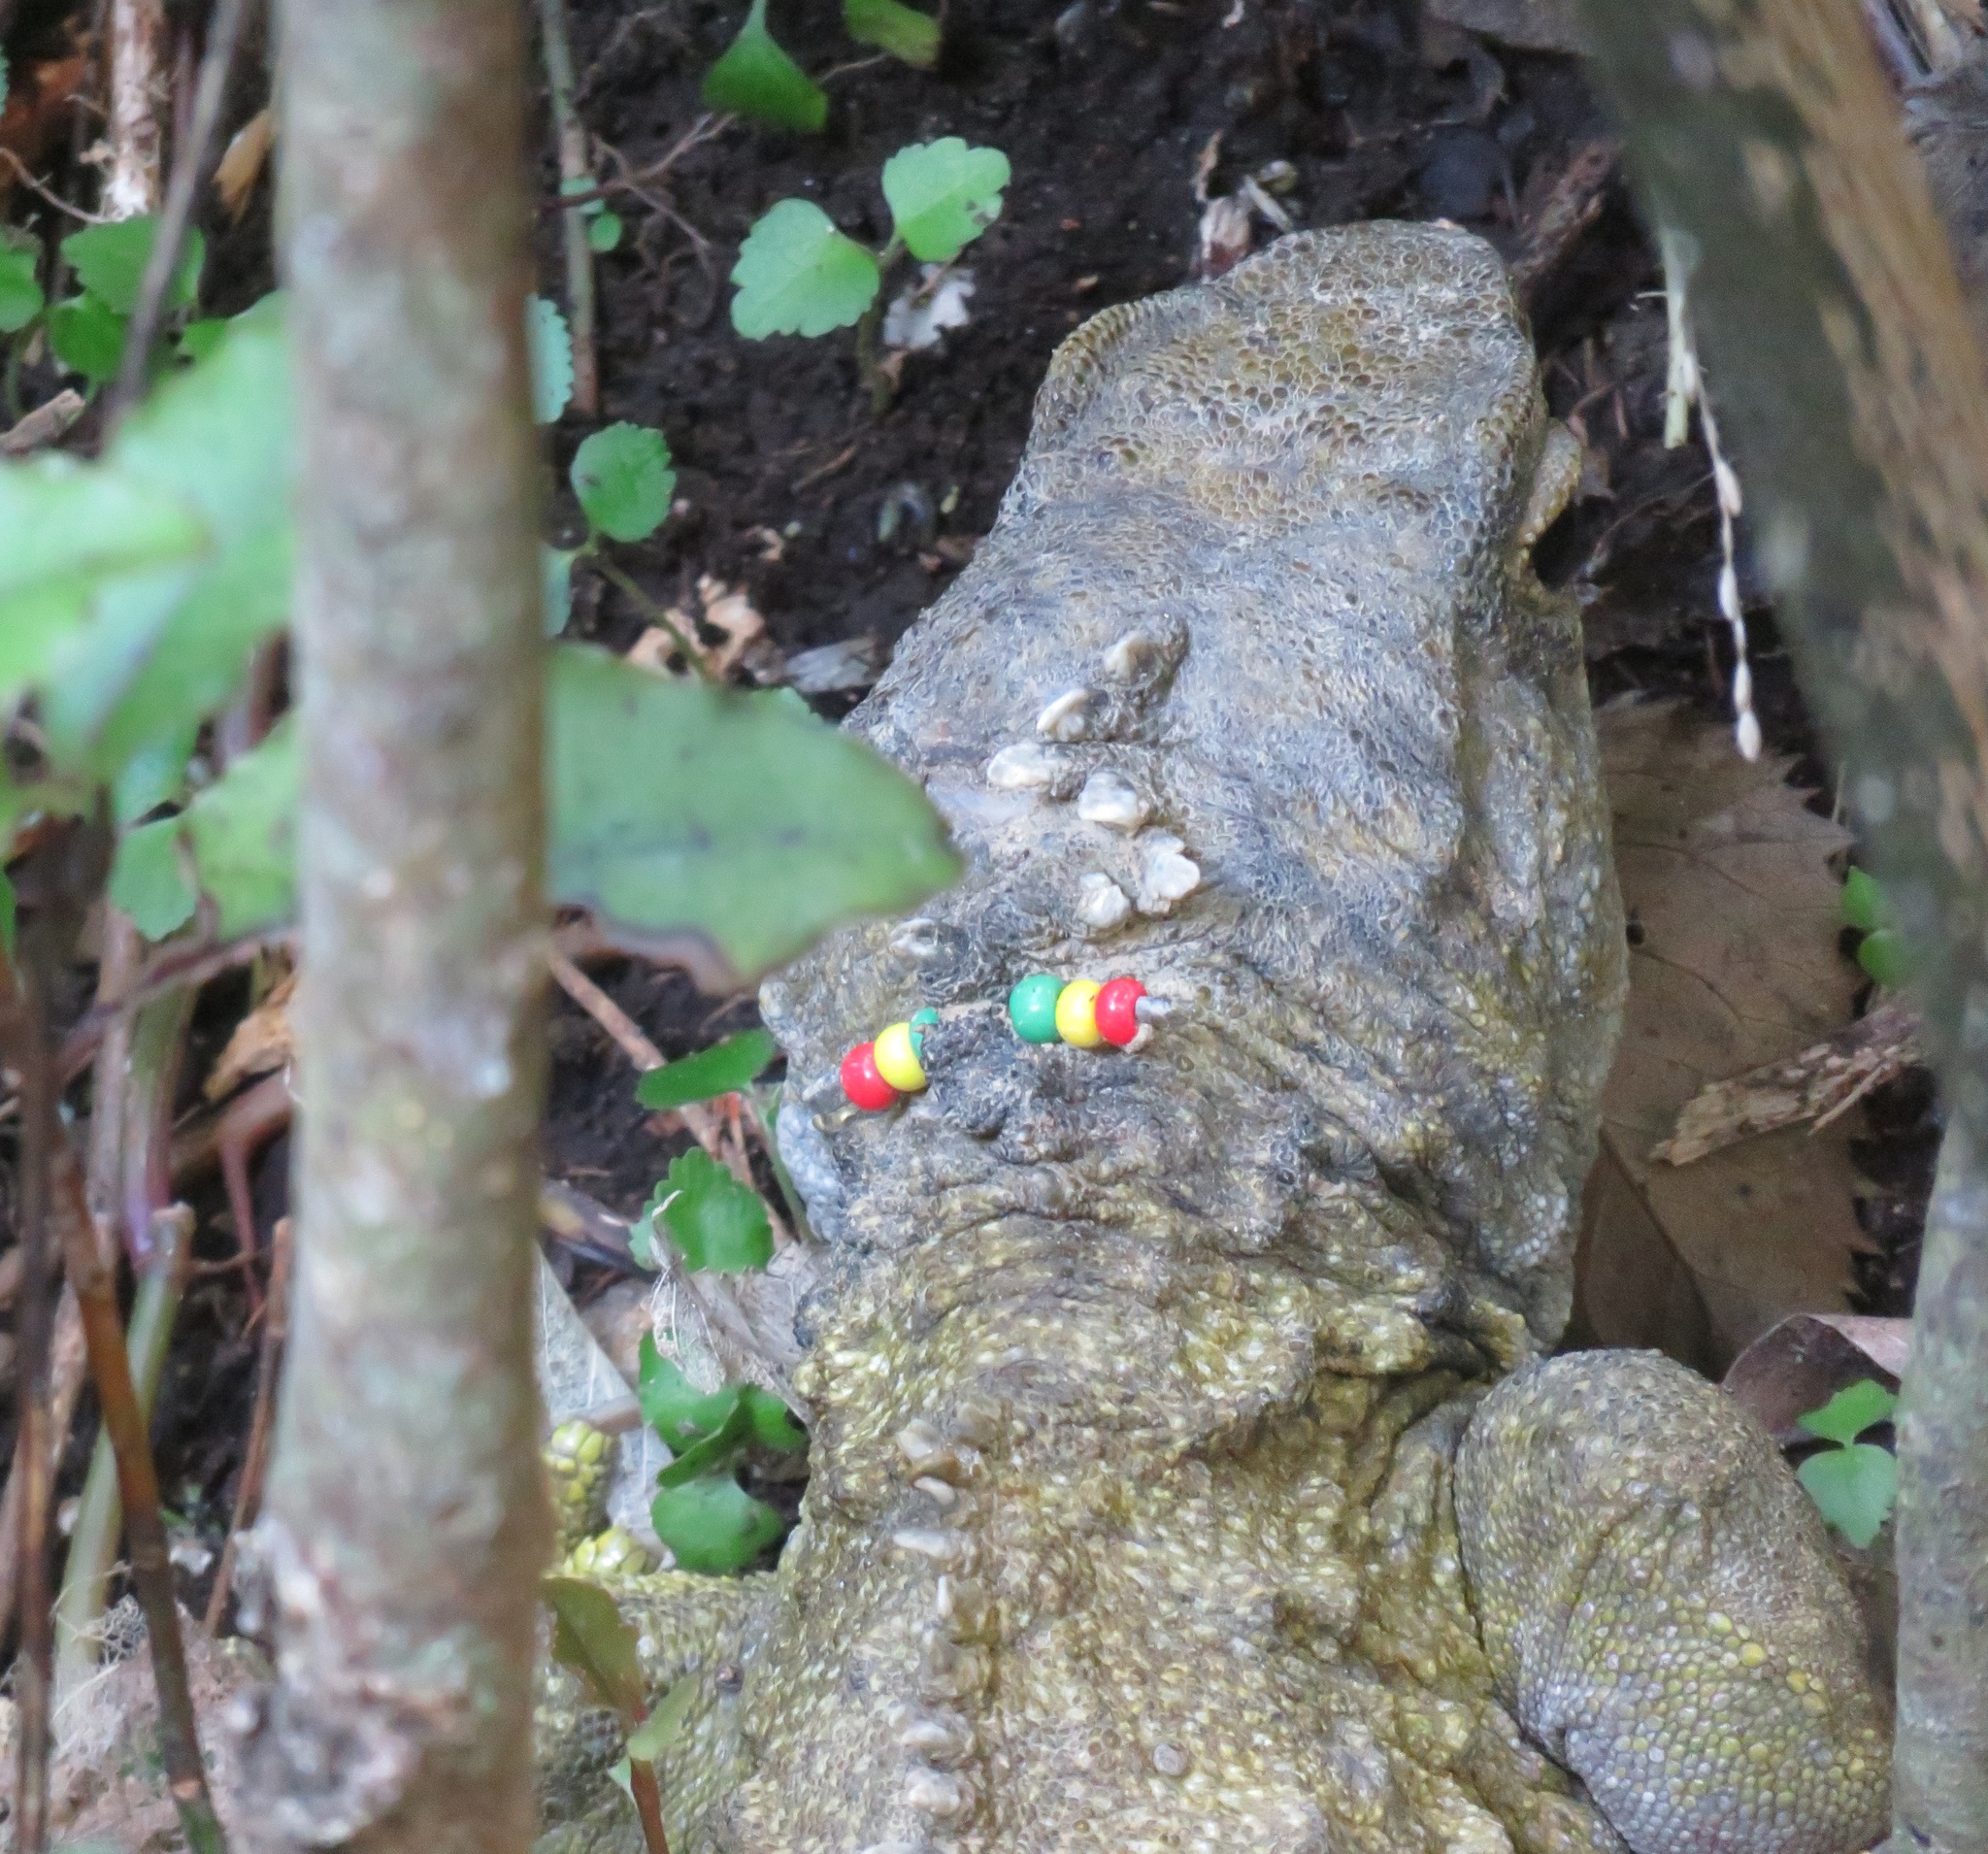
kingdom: Animalia
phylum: Chordata
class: Sphenodontia
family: Sphenodontidae
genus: Sphenodon
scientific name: Sphenodon punctatus
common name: Tuatara
